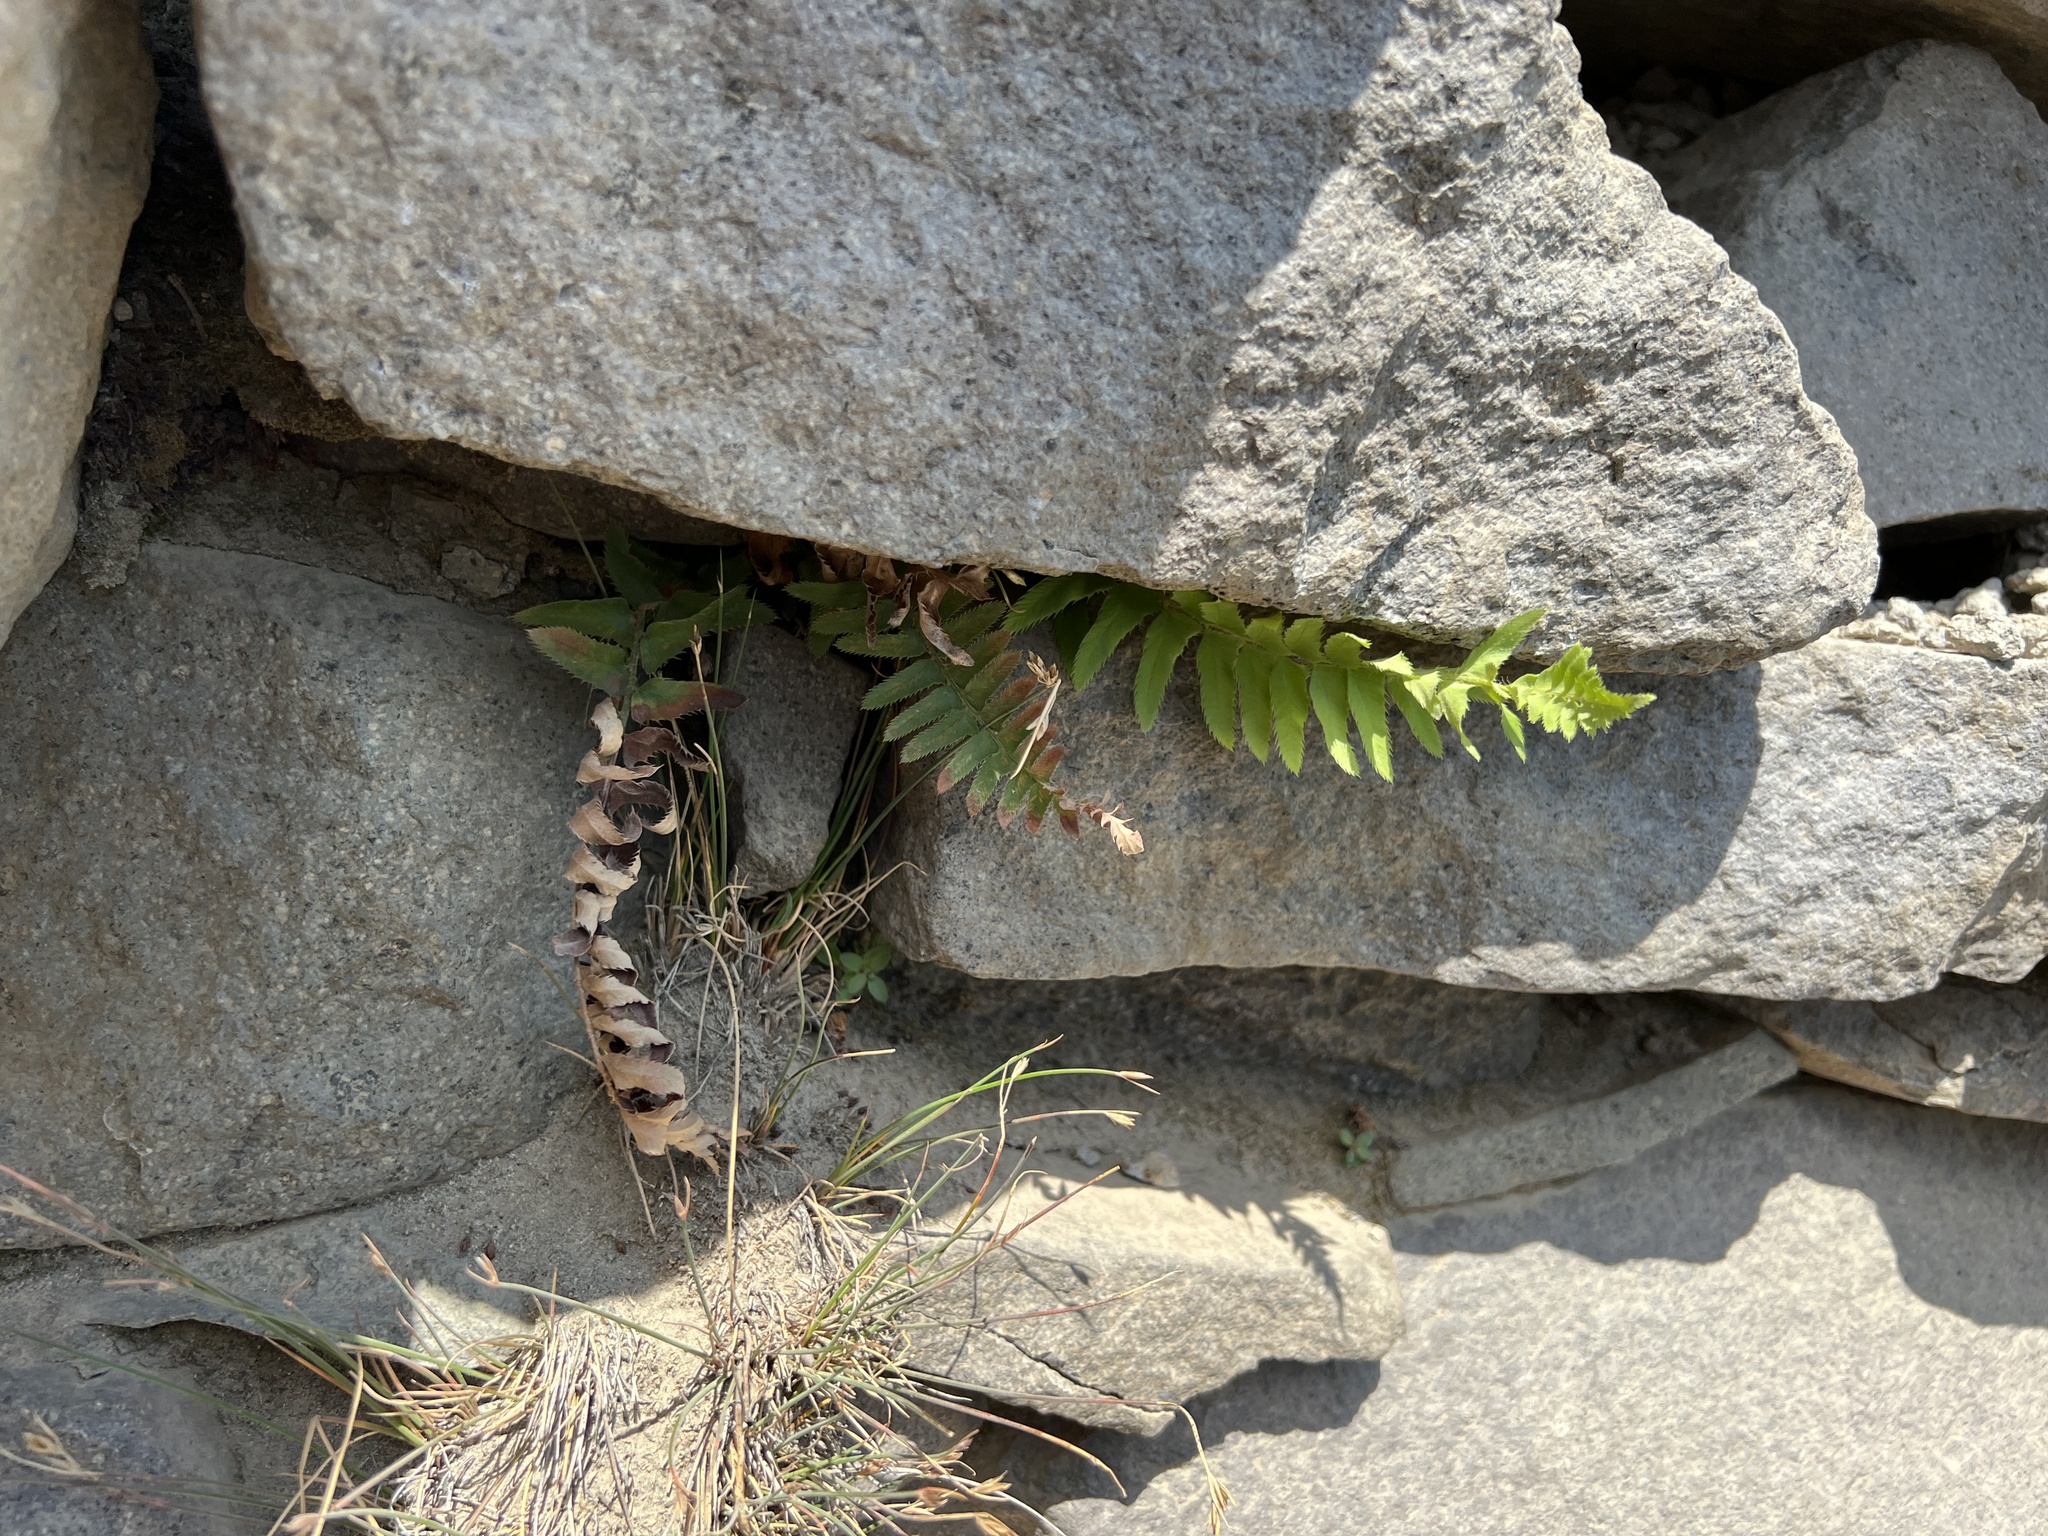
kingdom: Plantae
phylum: Tracheophyta
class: Polypodiopsida
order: Polypodiales
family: Dryopteridaceae
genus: Polystichum
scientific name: Polystichum munitum
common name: Western sword-fern
